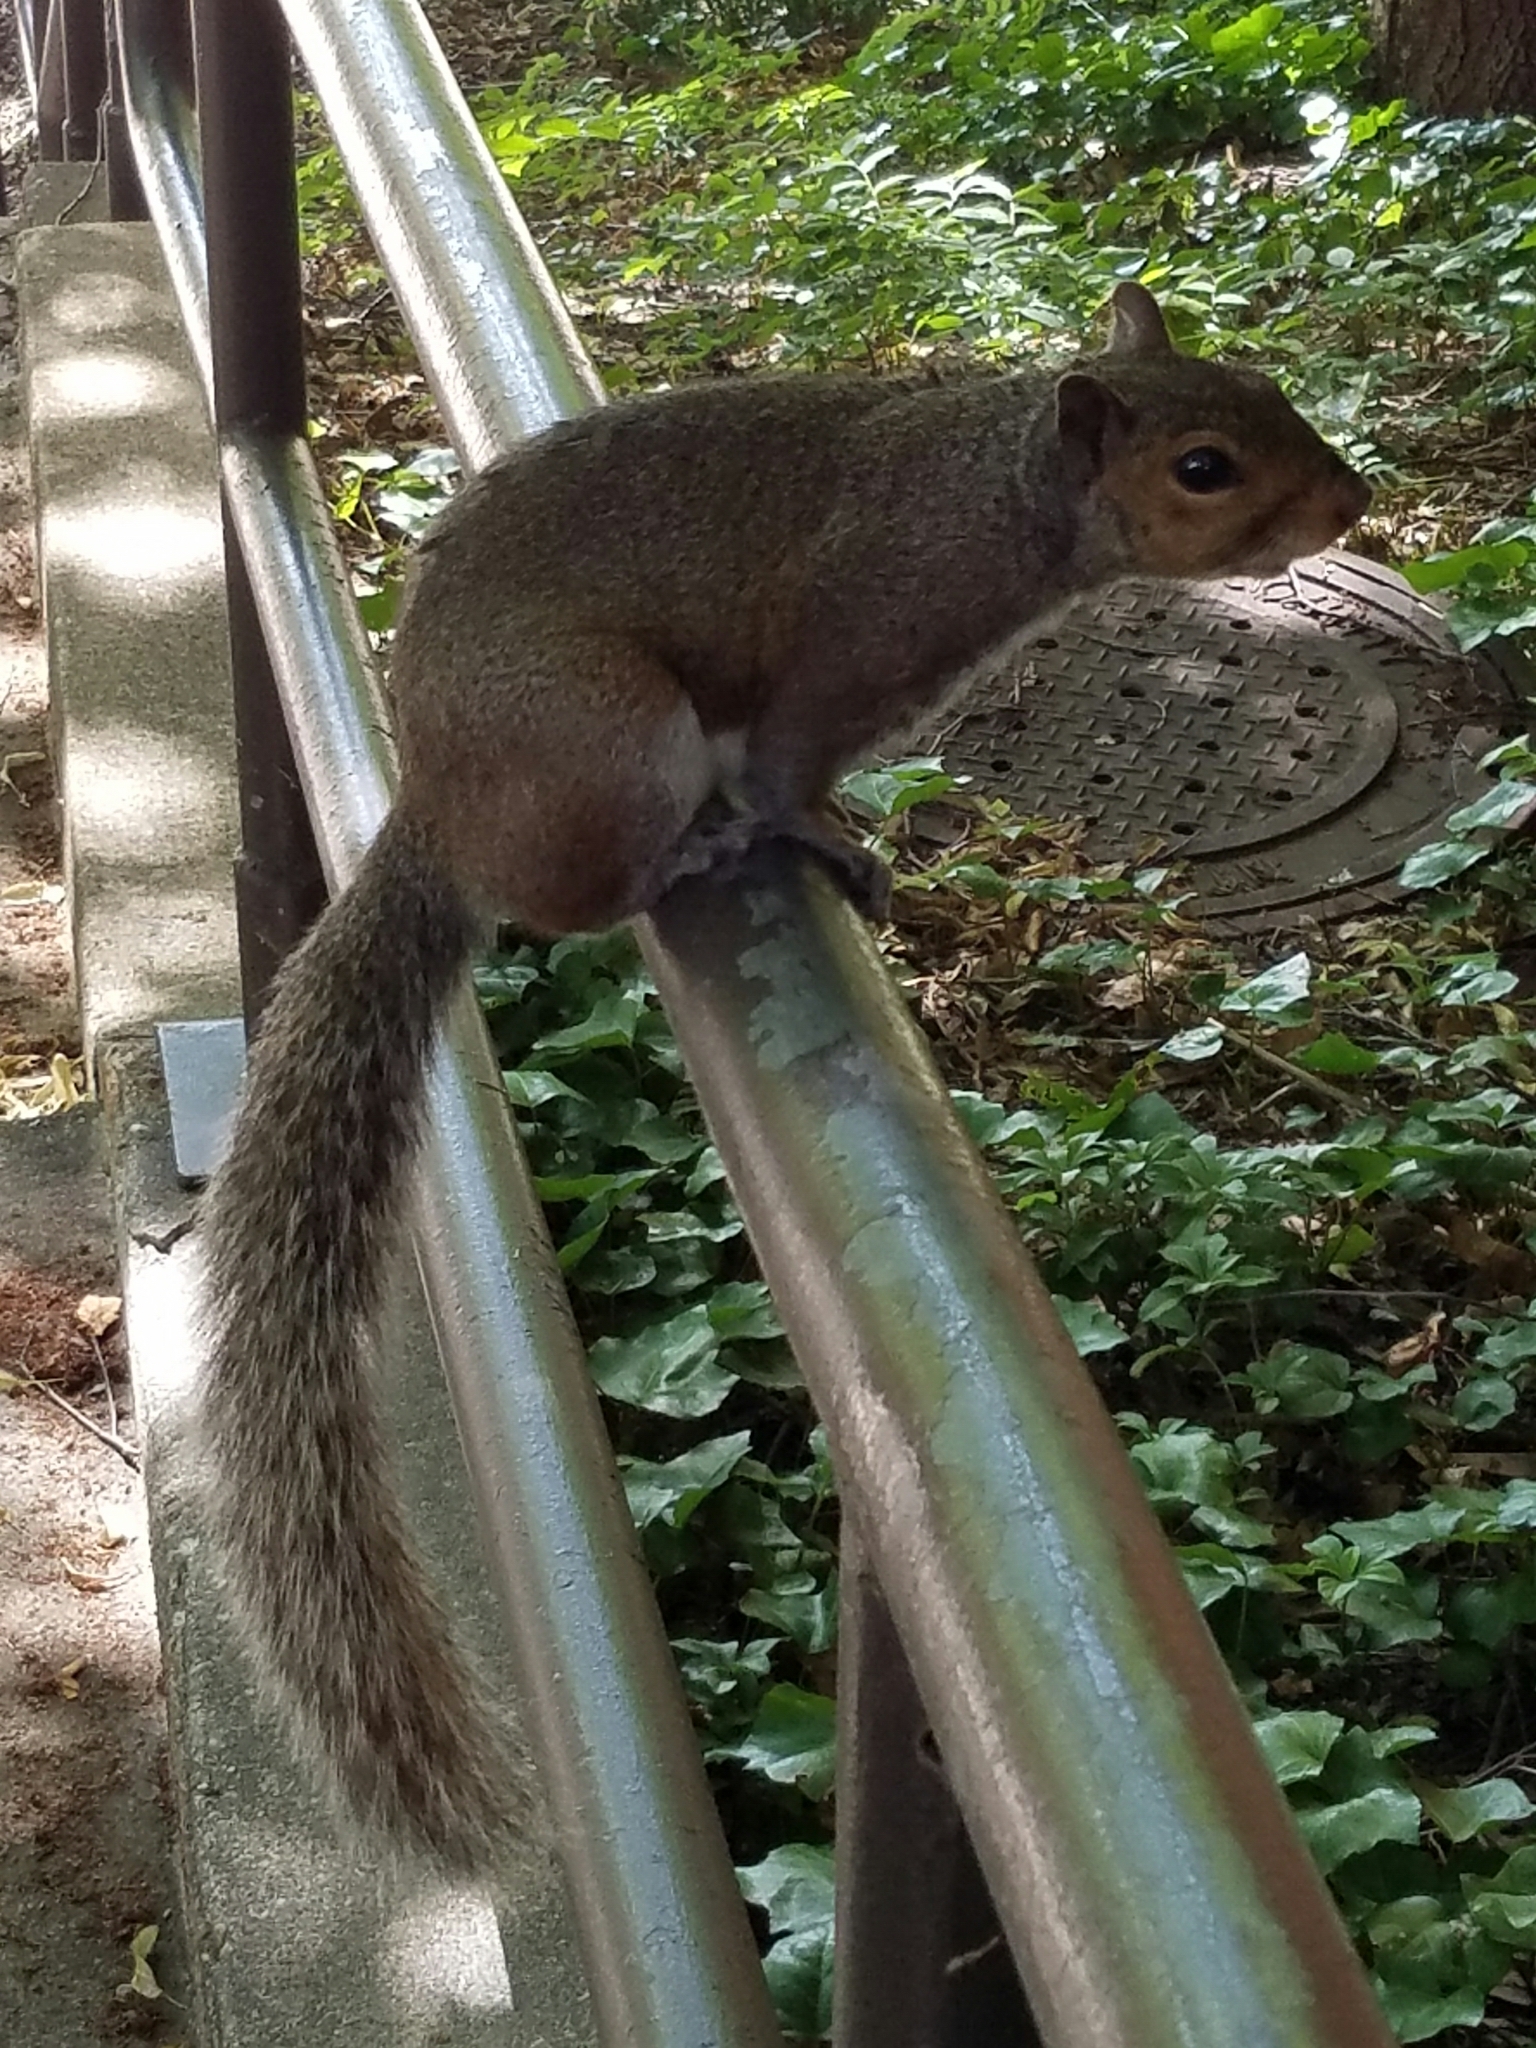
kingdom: Animalia
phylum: Chordata
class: Mammalia
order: Rodentia
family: Sciuridae
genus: Sciurus
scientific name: Sciurus carolinensis
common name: Eastern gray squirrel
